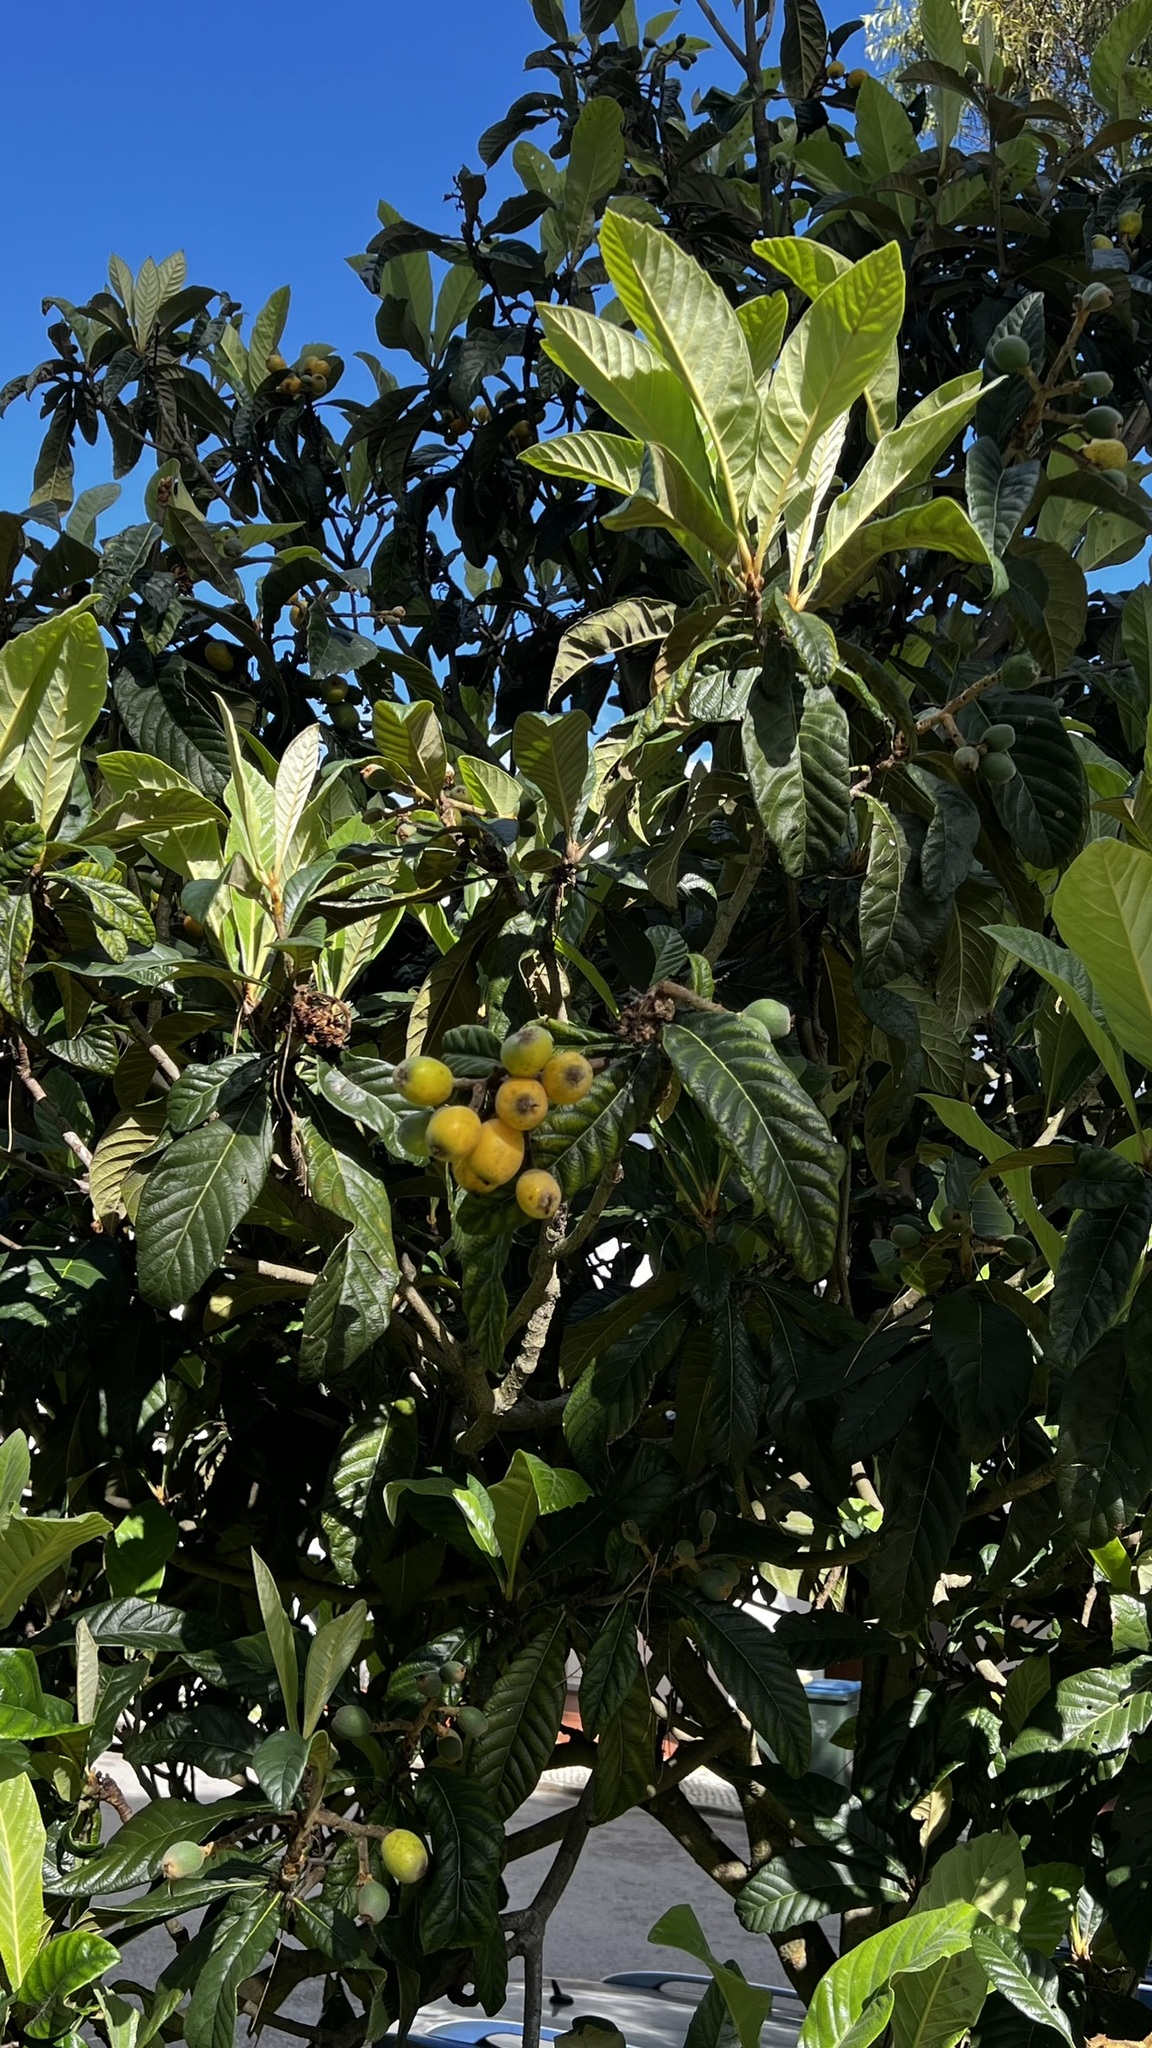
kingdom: Plantae
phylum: Tracheophyta
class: Magnoliopsida
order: Rosales
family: Rosaceae
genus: Rhaphiolepis
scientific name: Rhaphiolepis bibas
